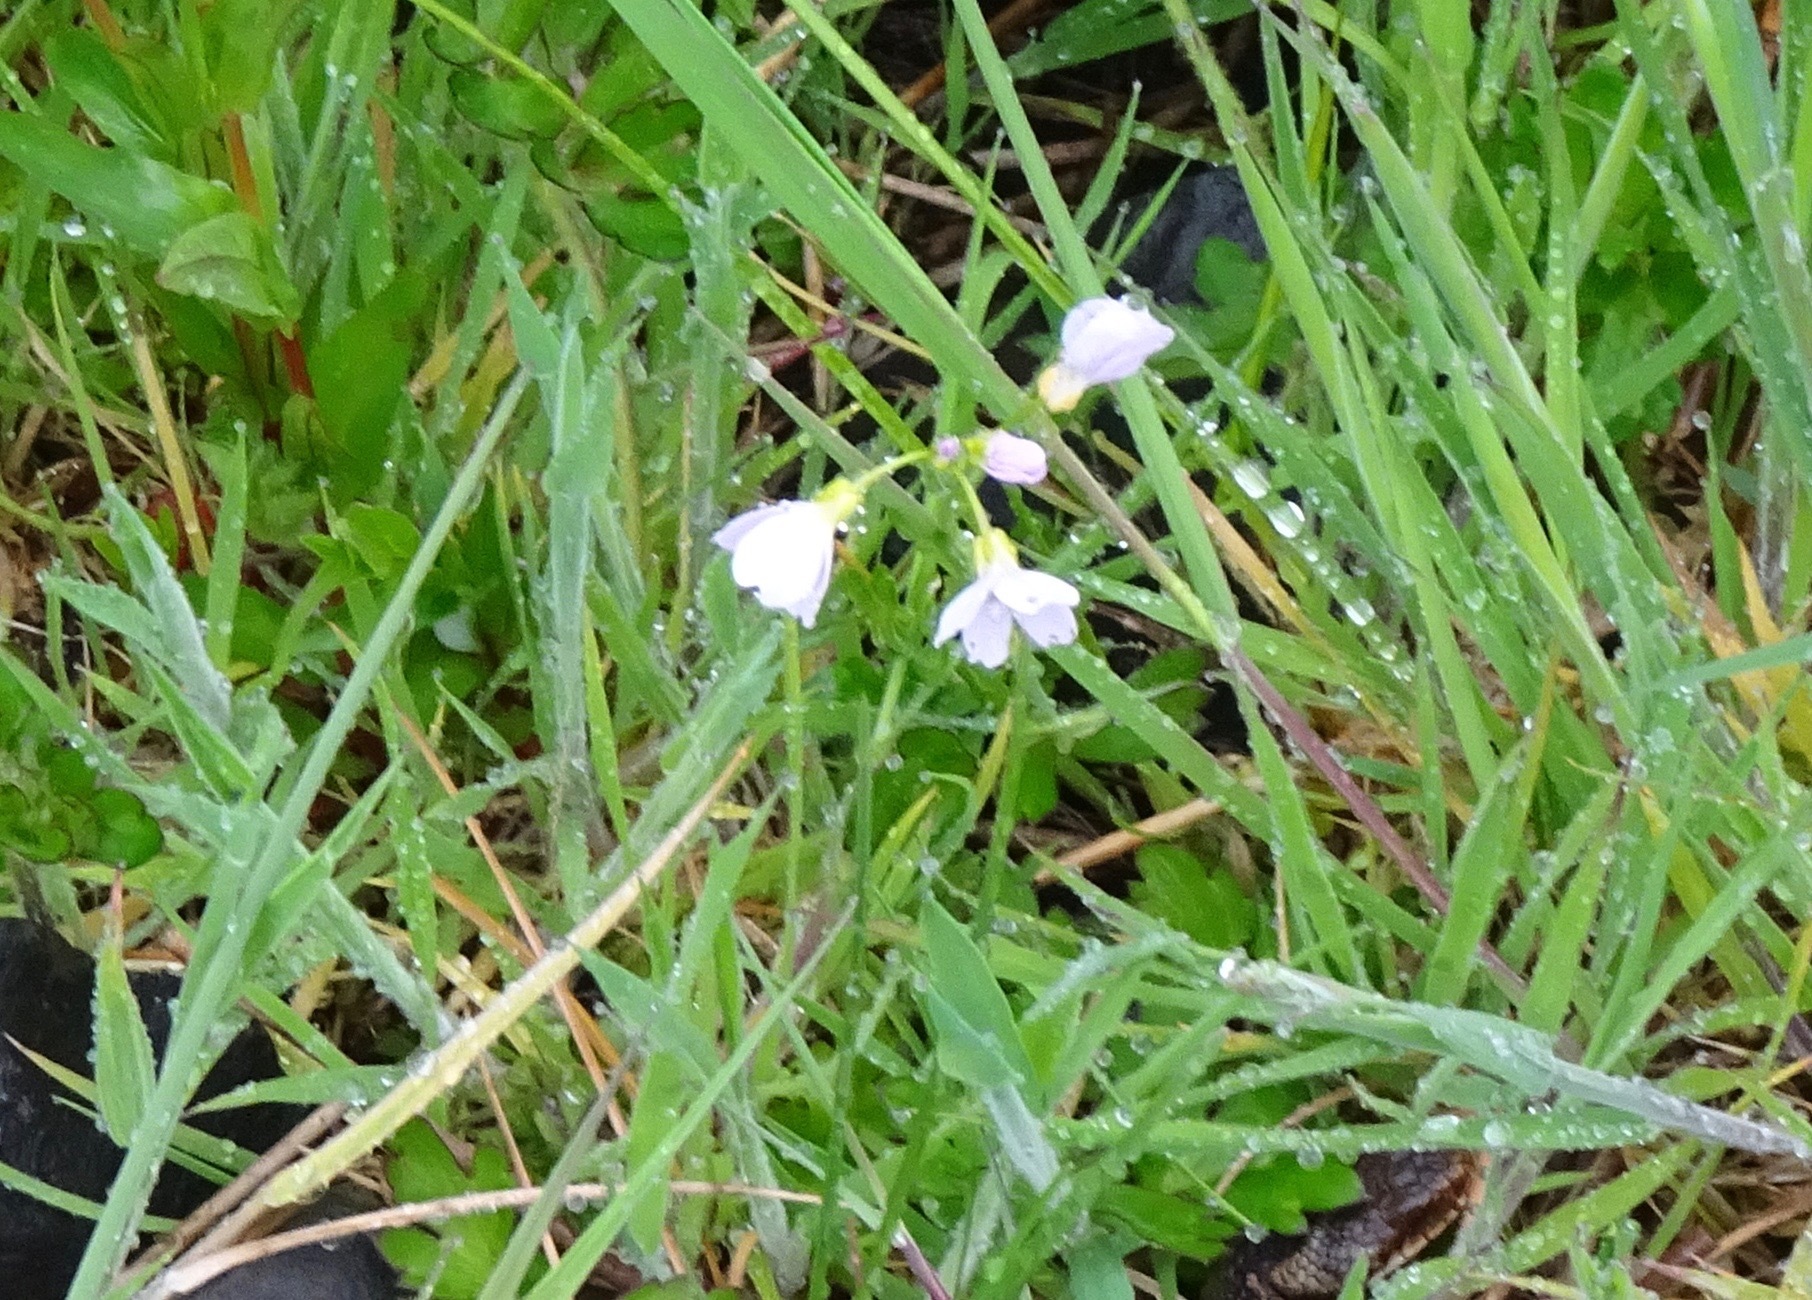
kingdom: Plantae
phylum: Tracheophyta
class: Magnoliopsida
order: Brassicales
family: Brassicaceae
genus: Cardamine
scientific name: Cardamine pratensis
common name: Cuckoo flower
